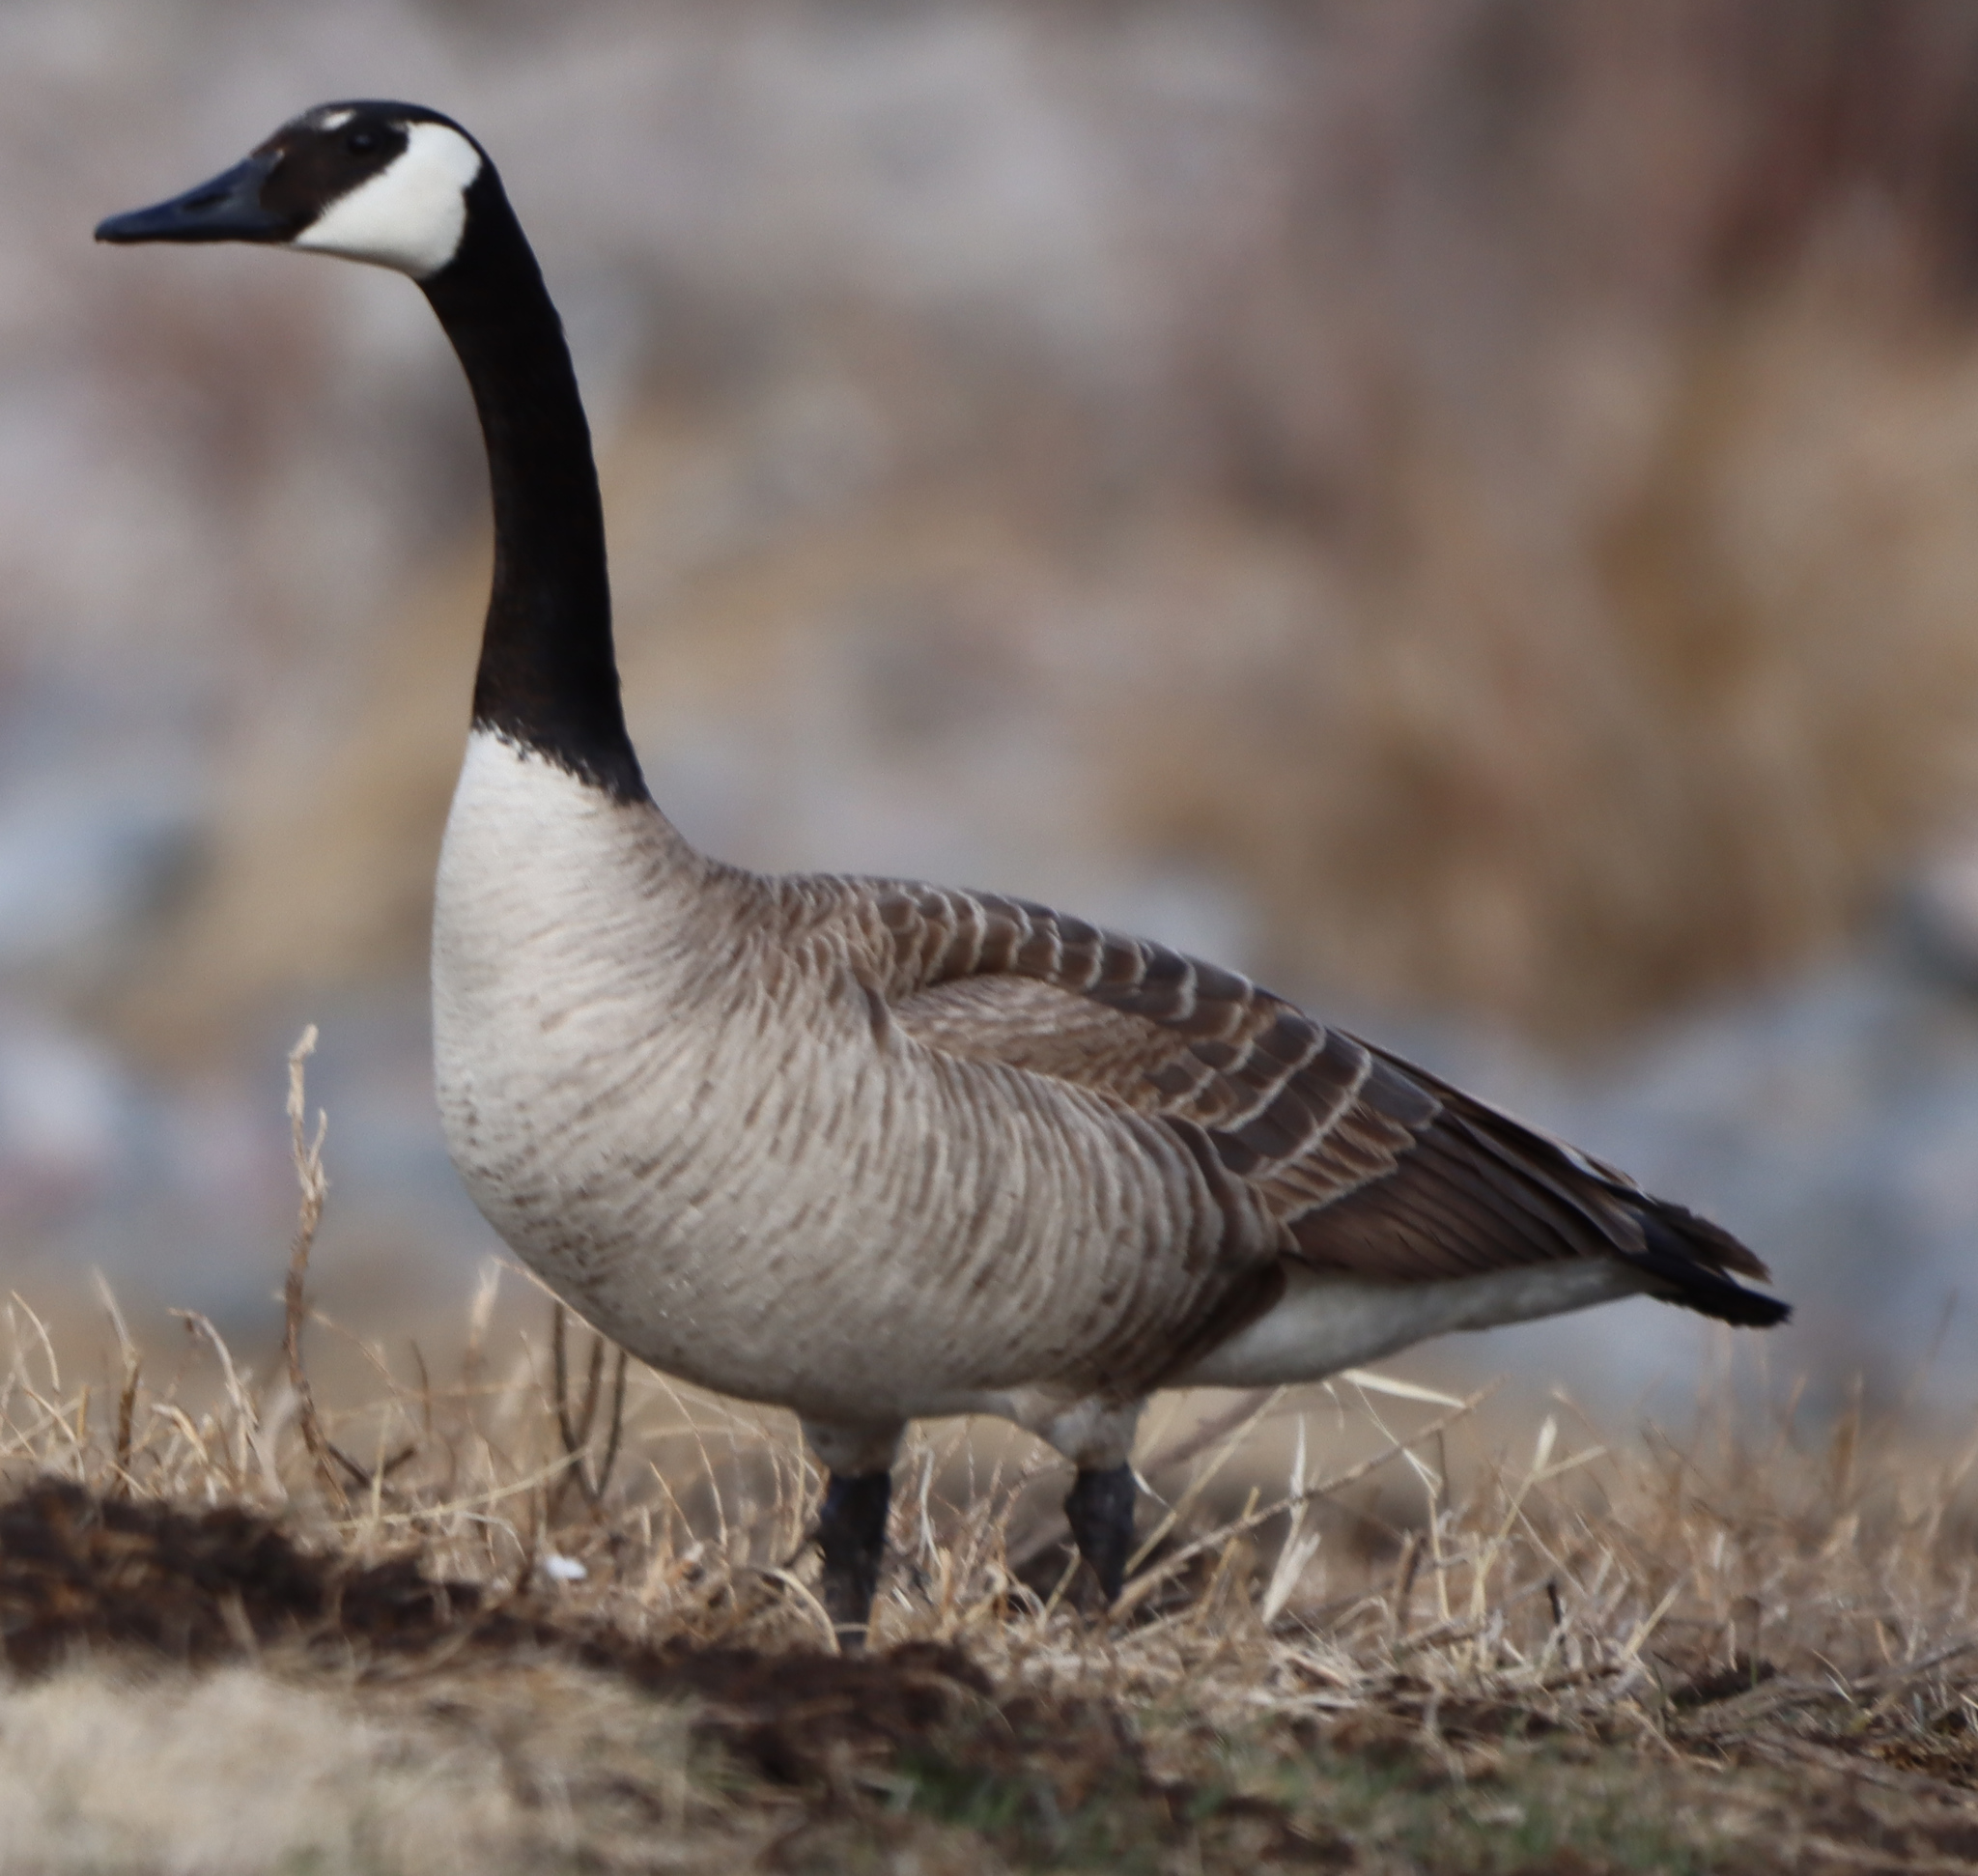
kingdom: Animalia
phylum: Chordata
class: Aves
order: Anseriformes
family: Anatidae
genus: Branta
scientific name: Branta canadensis
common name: Canada goose
